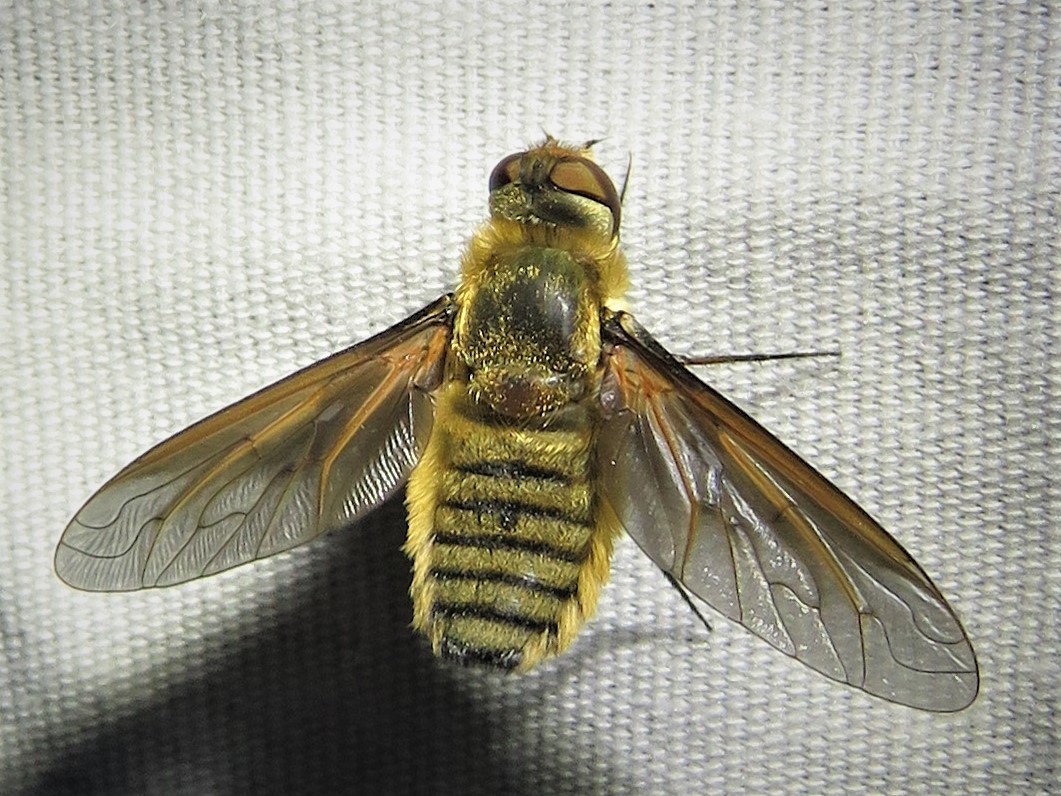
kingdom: Animalia
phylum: Arthropoda
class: Insecta
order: Diptera
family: Bombyliidae
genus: Poecilanthrax
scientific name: Poecilanthrax lucifer
